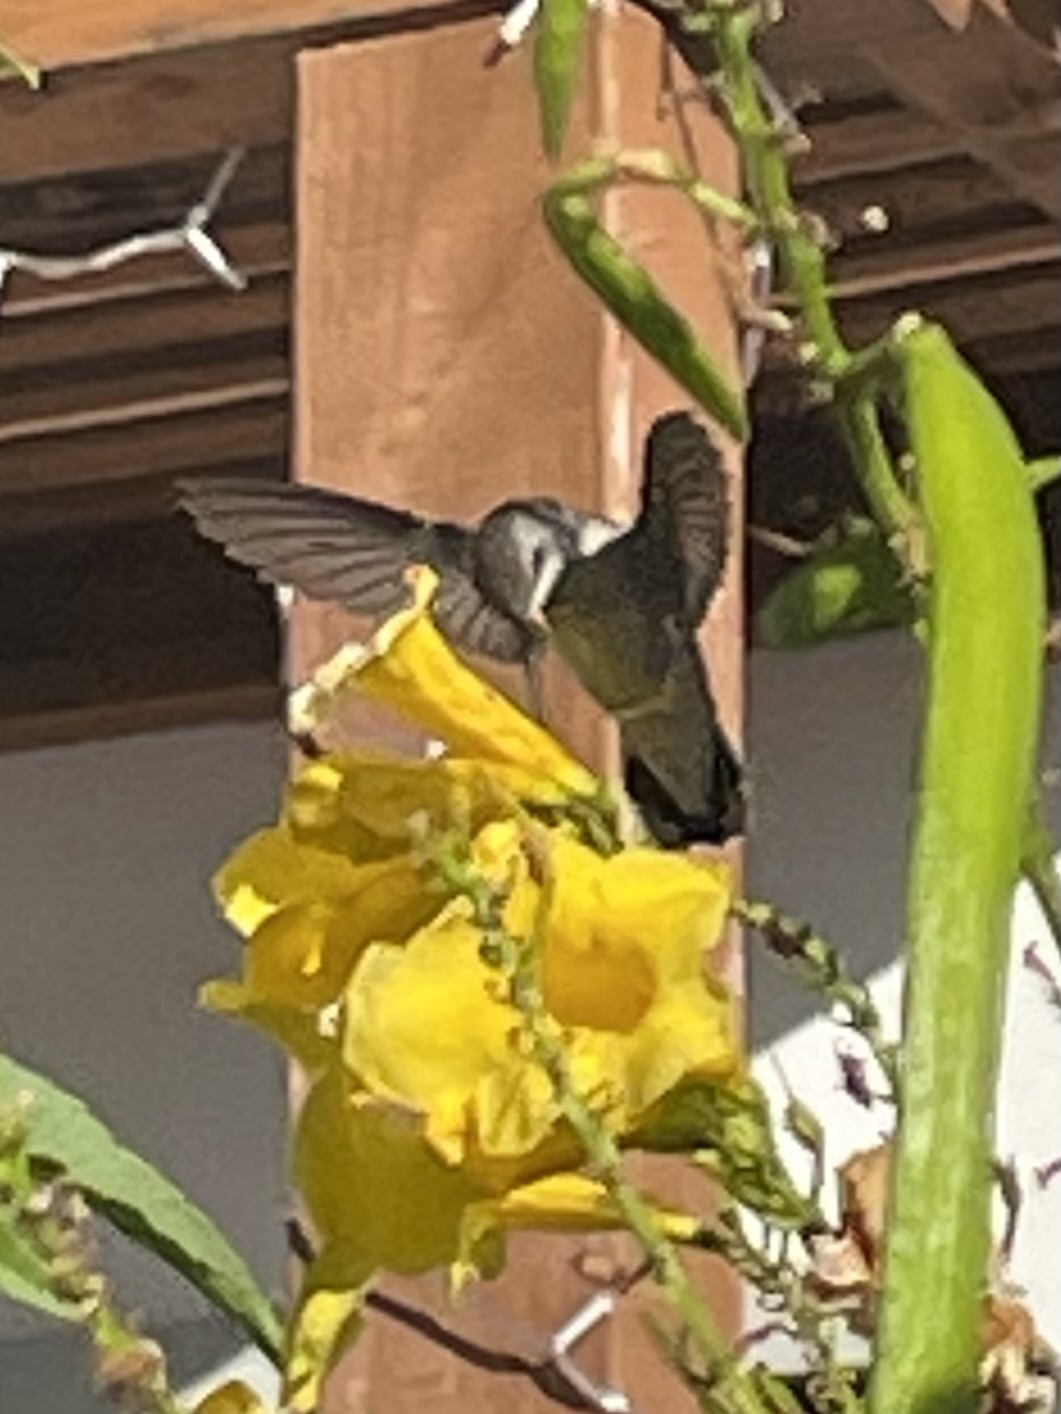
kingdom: Animalia
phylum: Chordata
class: Aves
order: Apodiformes
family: Trochilidae
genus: Calypte
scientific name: Calypte costae
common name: Costa's hummingbird
